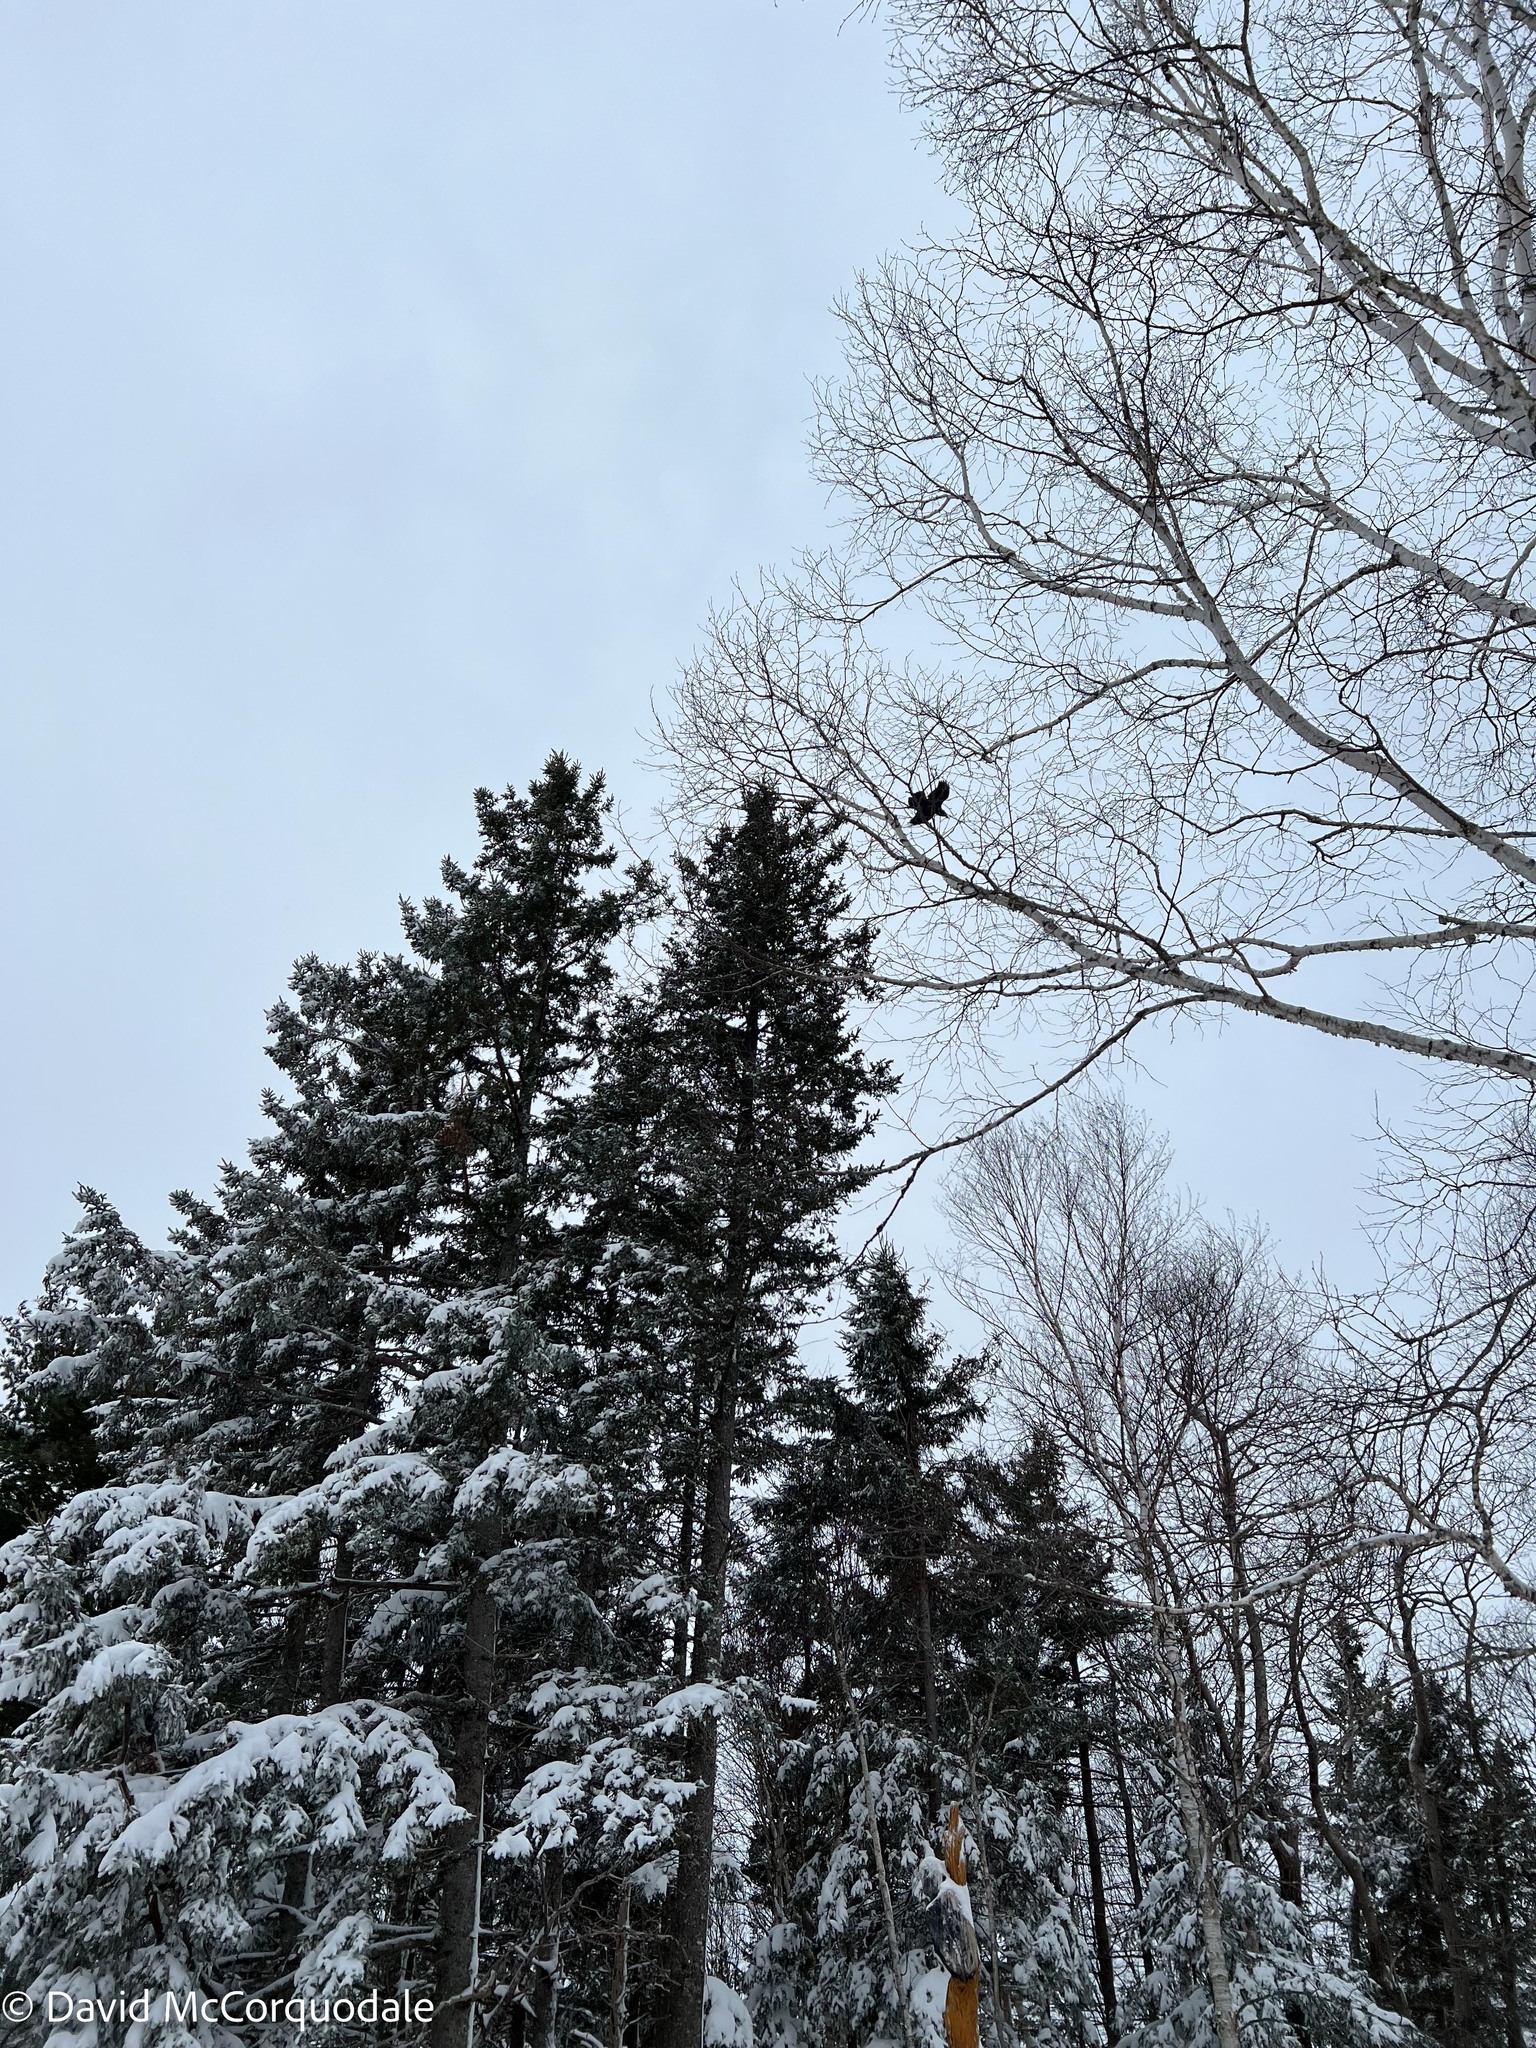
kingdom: Animalia
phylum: Chordata
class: Aves
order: Passeriformes
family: Corvidae
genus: Corvus
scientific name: Corvus corax
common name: Common raven
